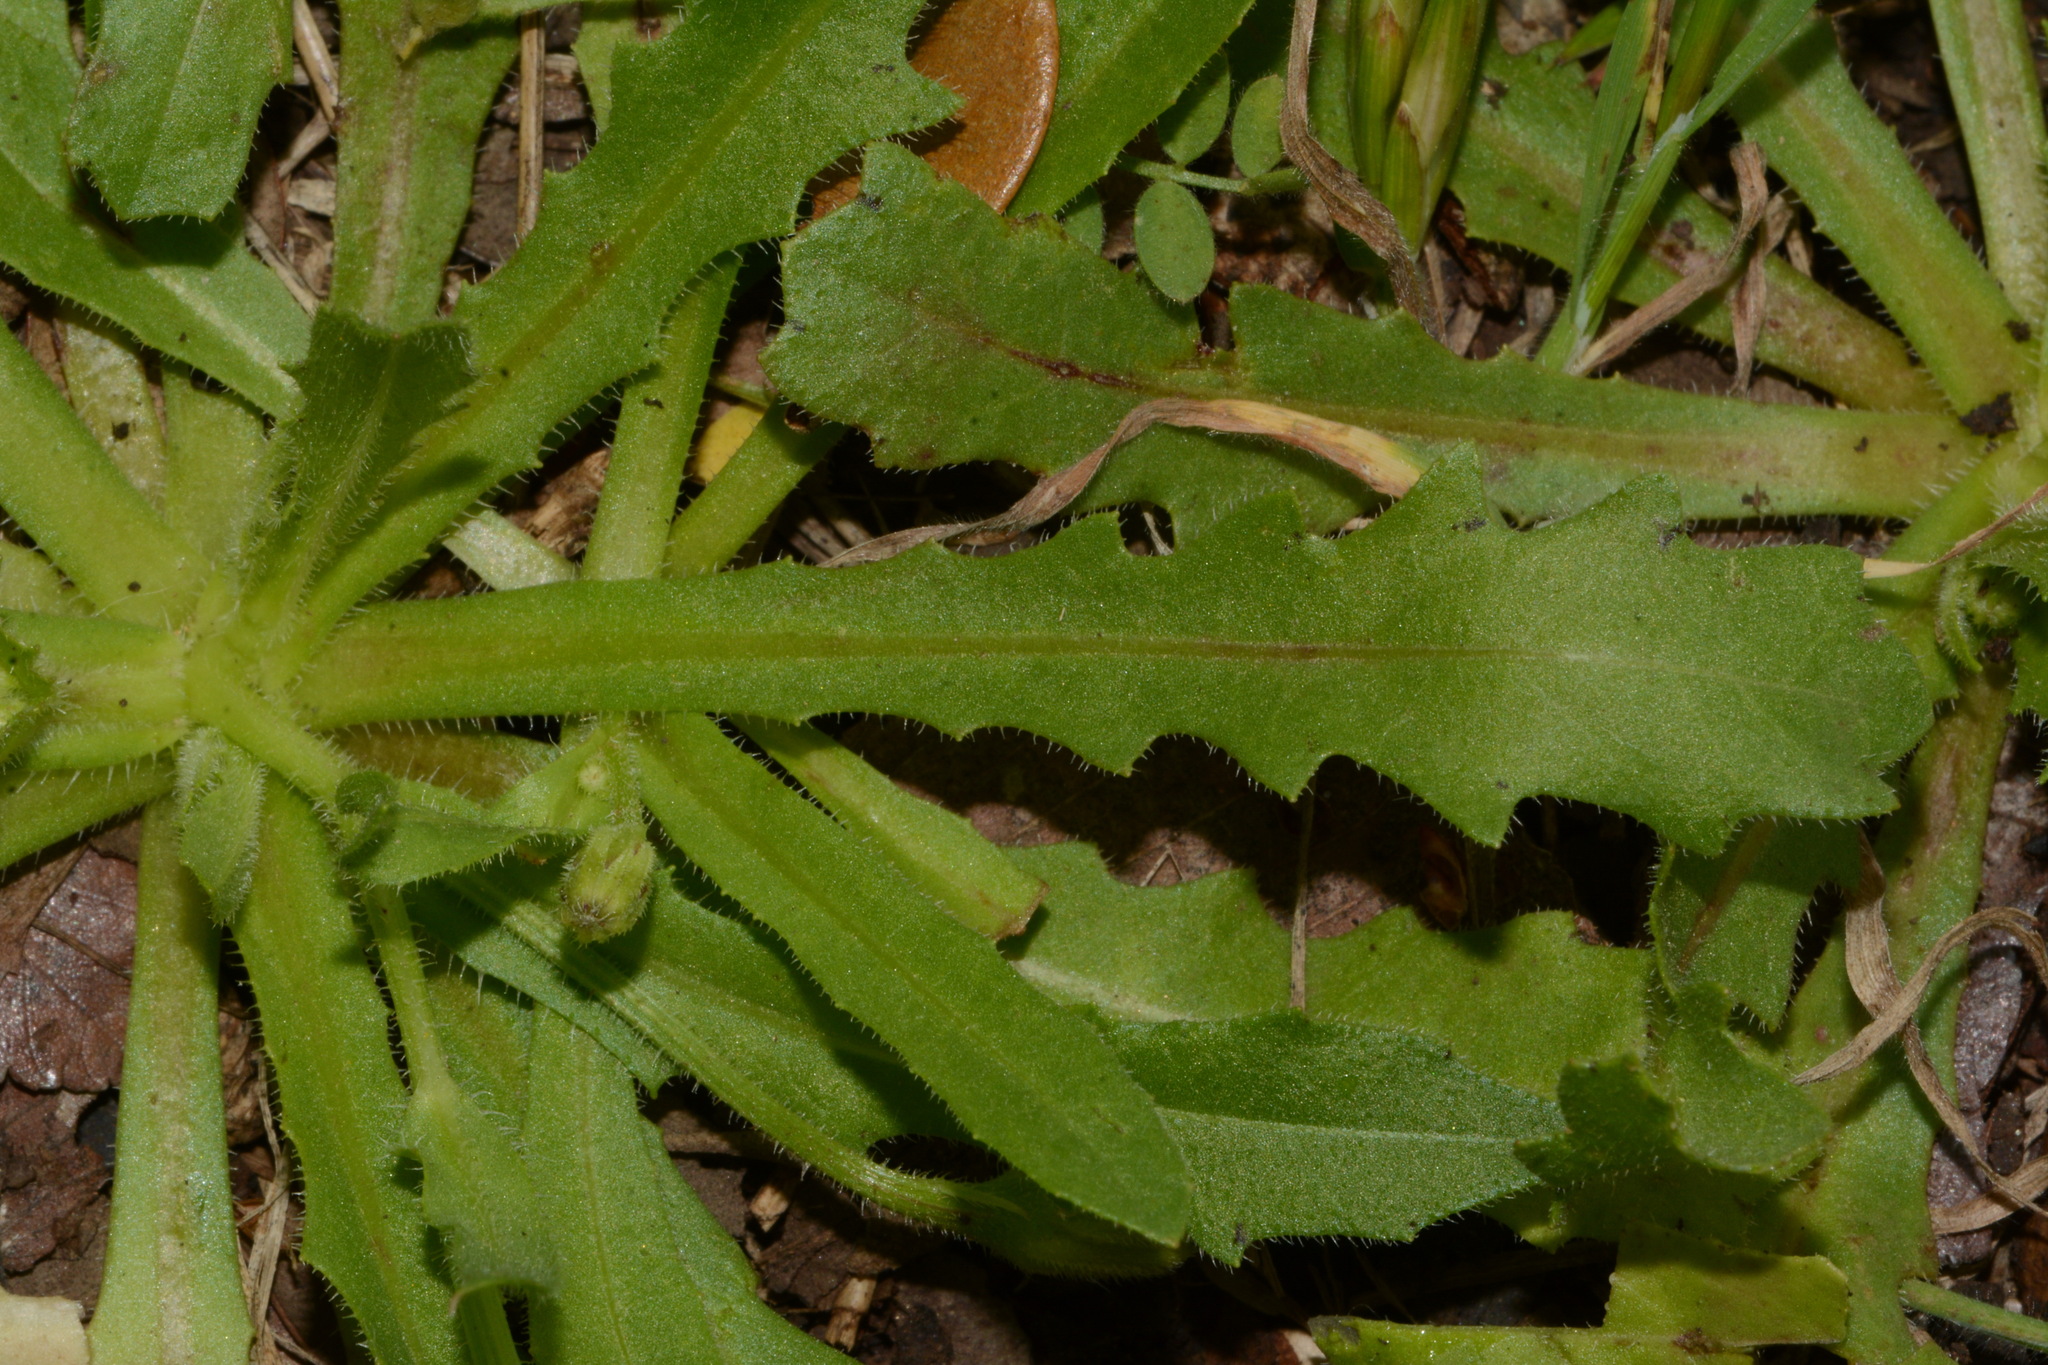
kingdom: Plantae
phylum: Tracheophyta
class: Magnoliopsida
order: Asterales
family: Asteraceae
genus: Hedypnois
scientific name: Hedypnois rhagadioloides
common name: Cretan weed
